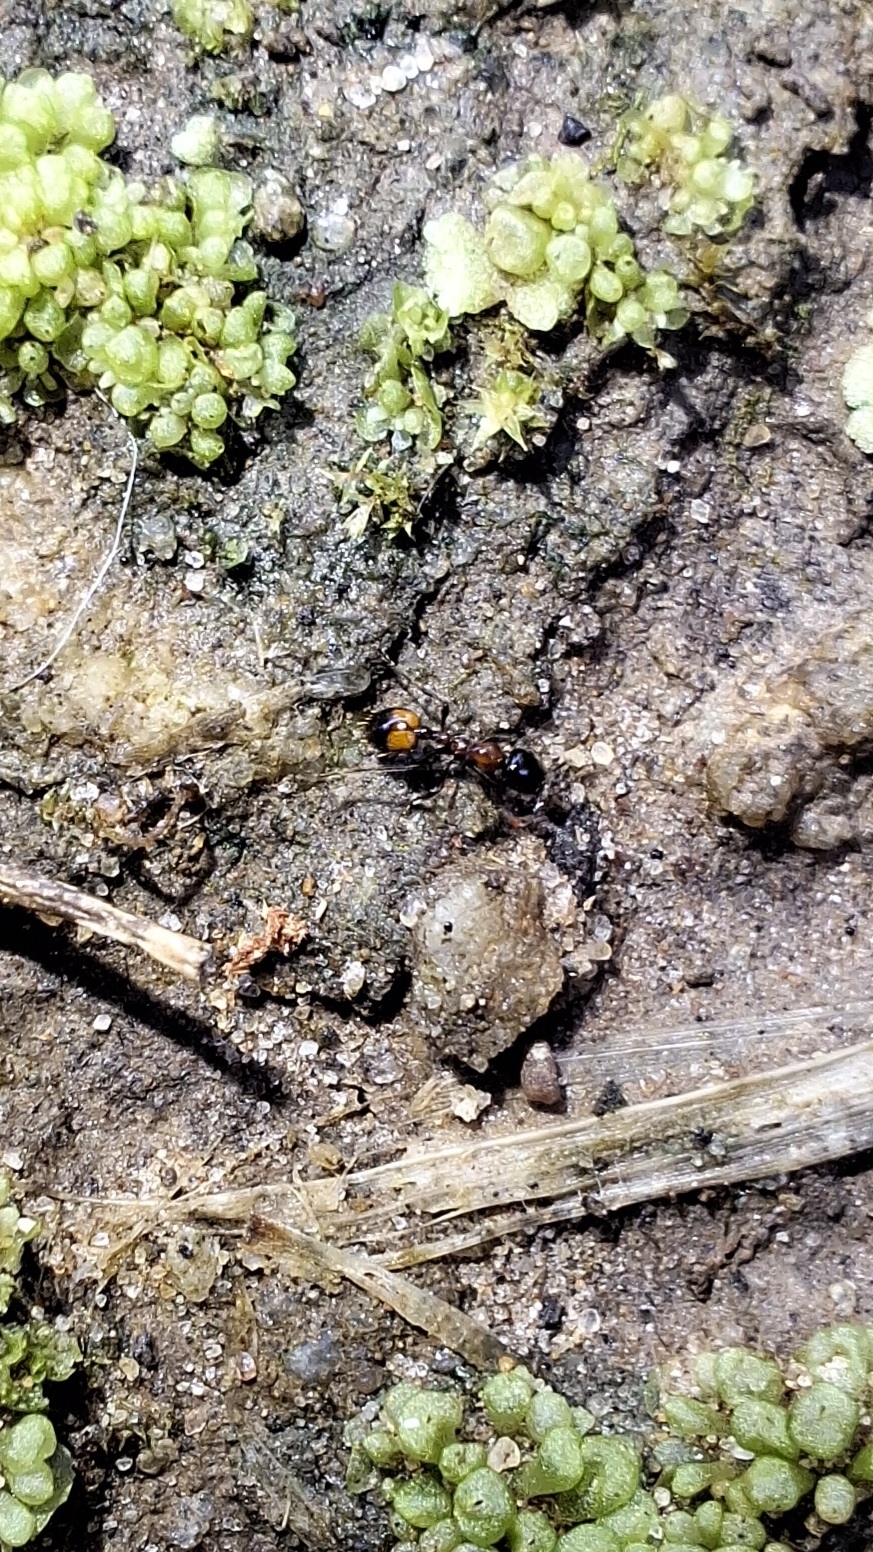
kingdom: Animalia
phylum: Arthropoda
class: Insecta
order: Hymenoptera
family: Formicidae
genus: Chelaner
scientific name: Chelaner
